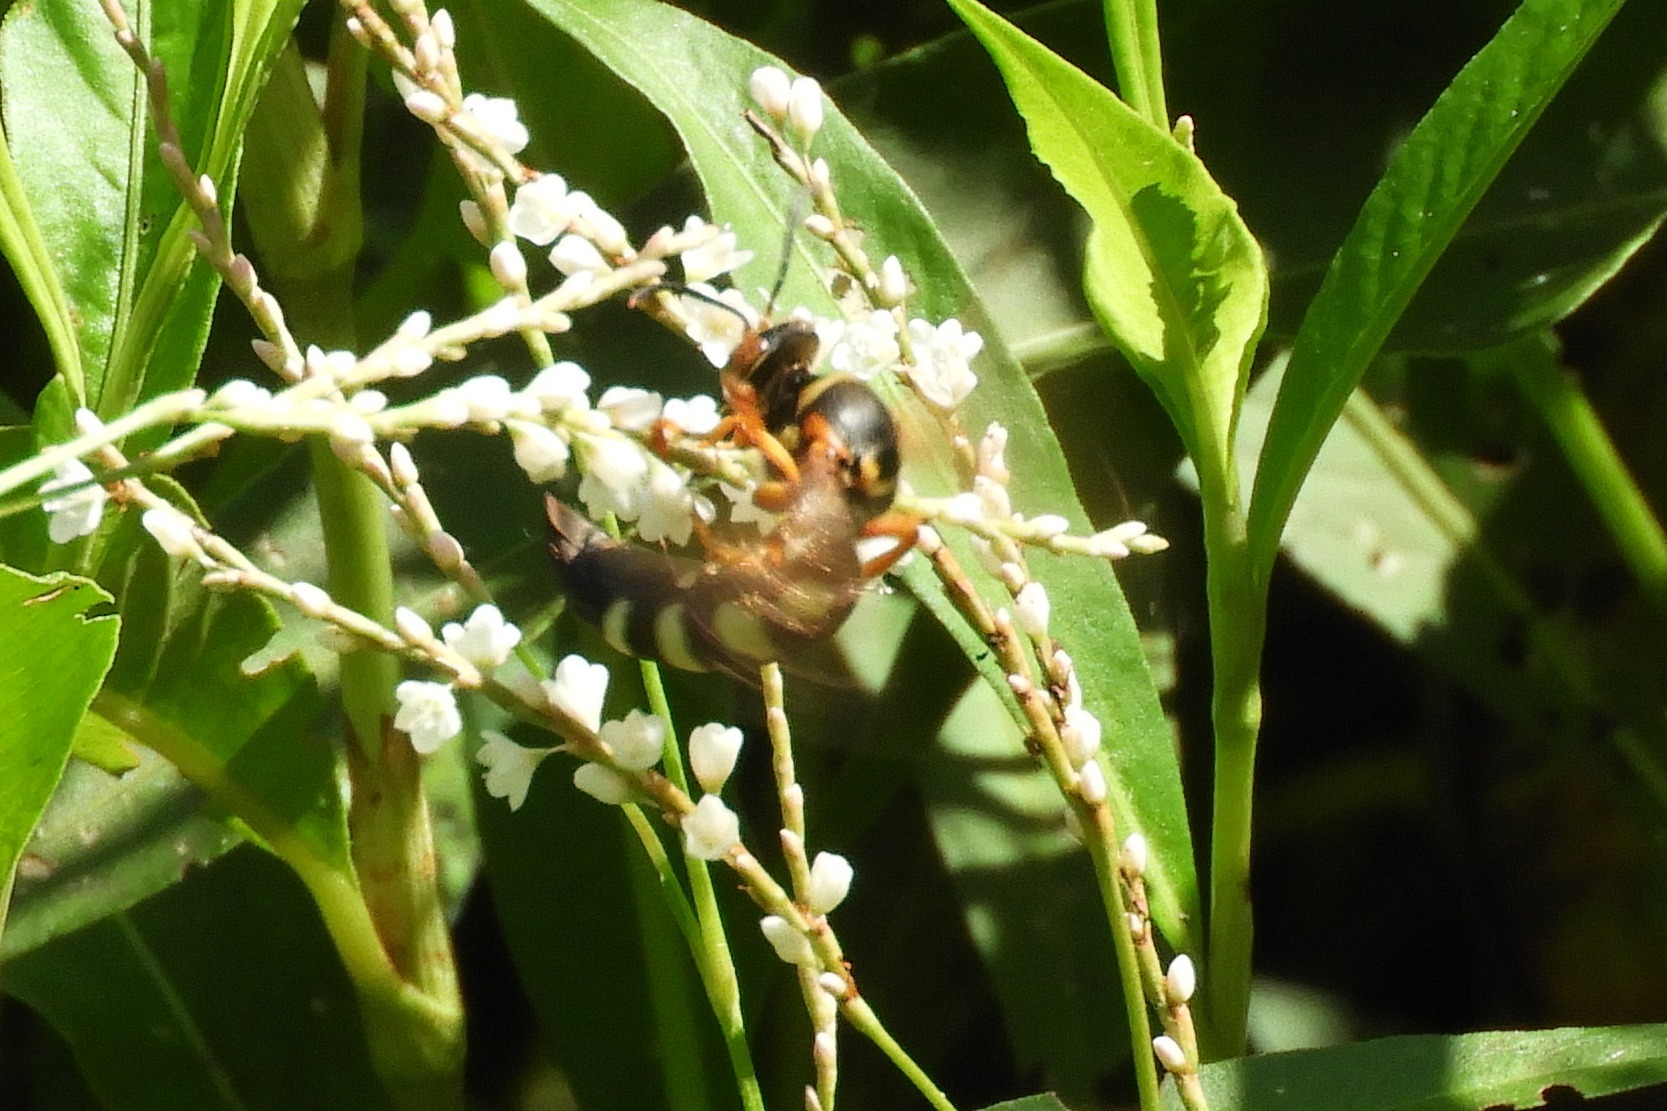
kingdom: Animalia
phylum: Arthropoda
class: Insecta
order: Hymenoptera
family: Crabronidae
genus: Stizus
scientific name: Stizus brevipennis
